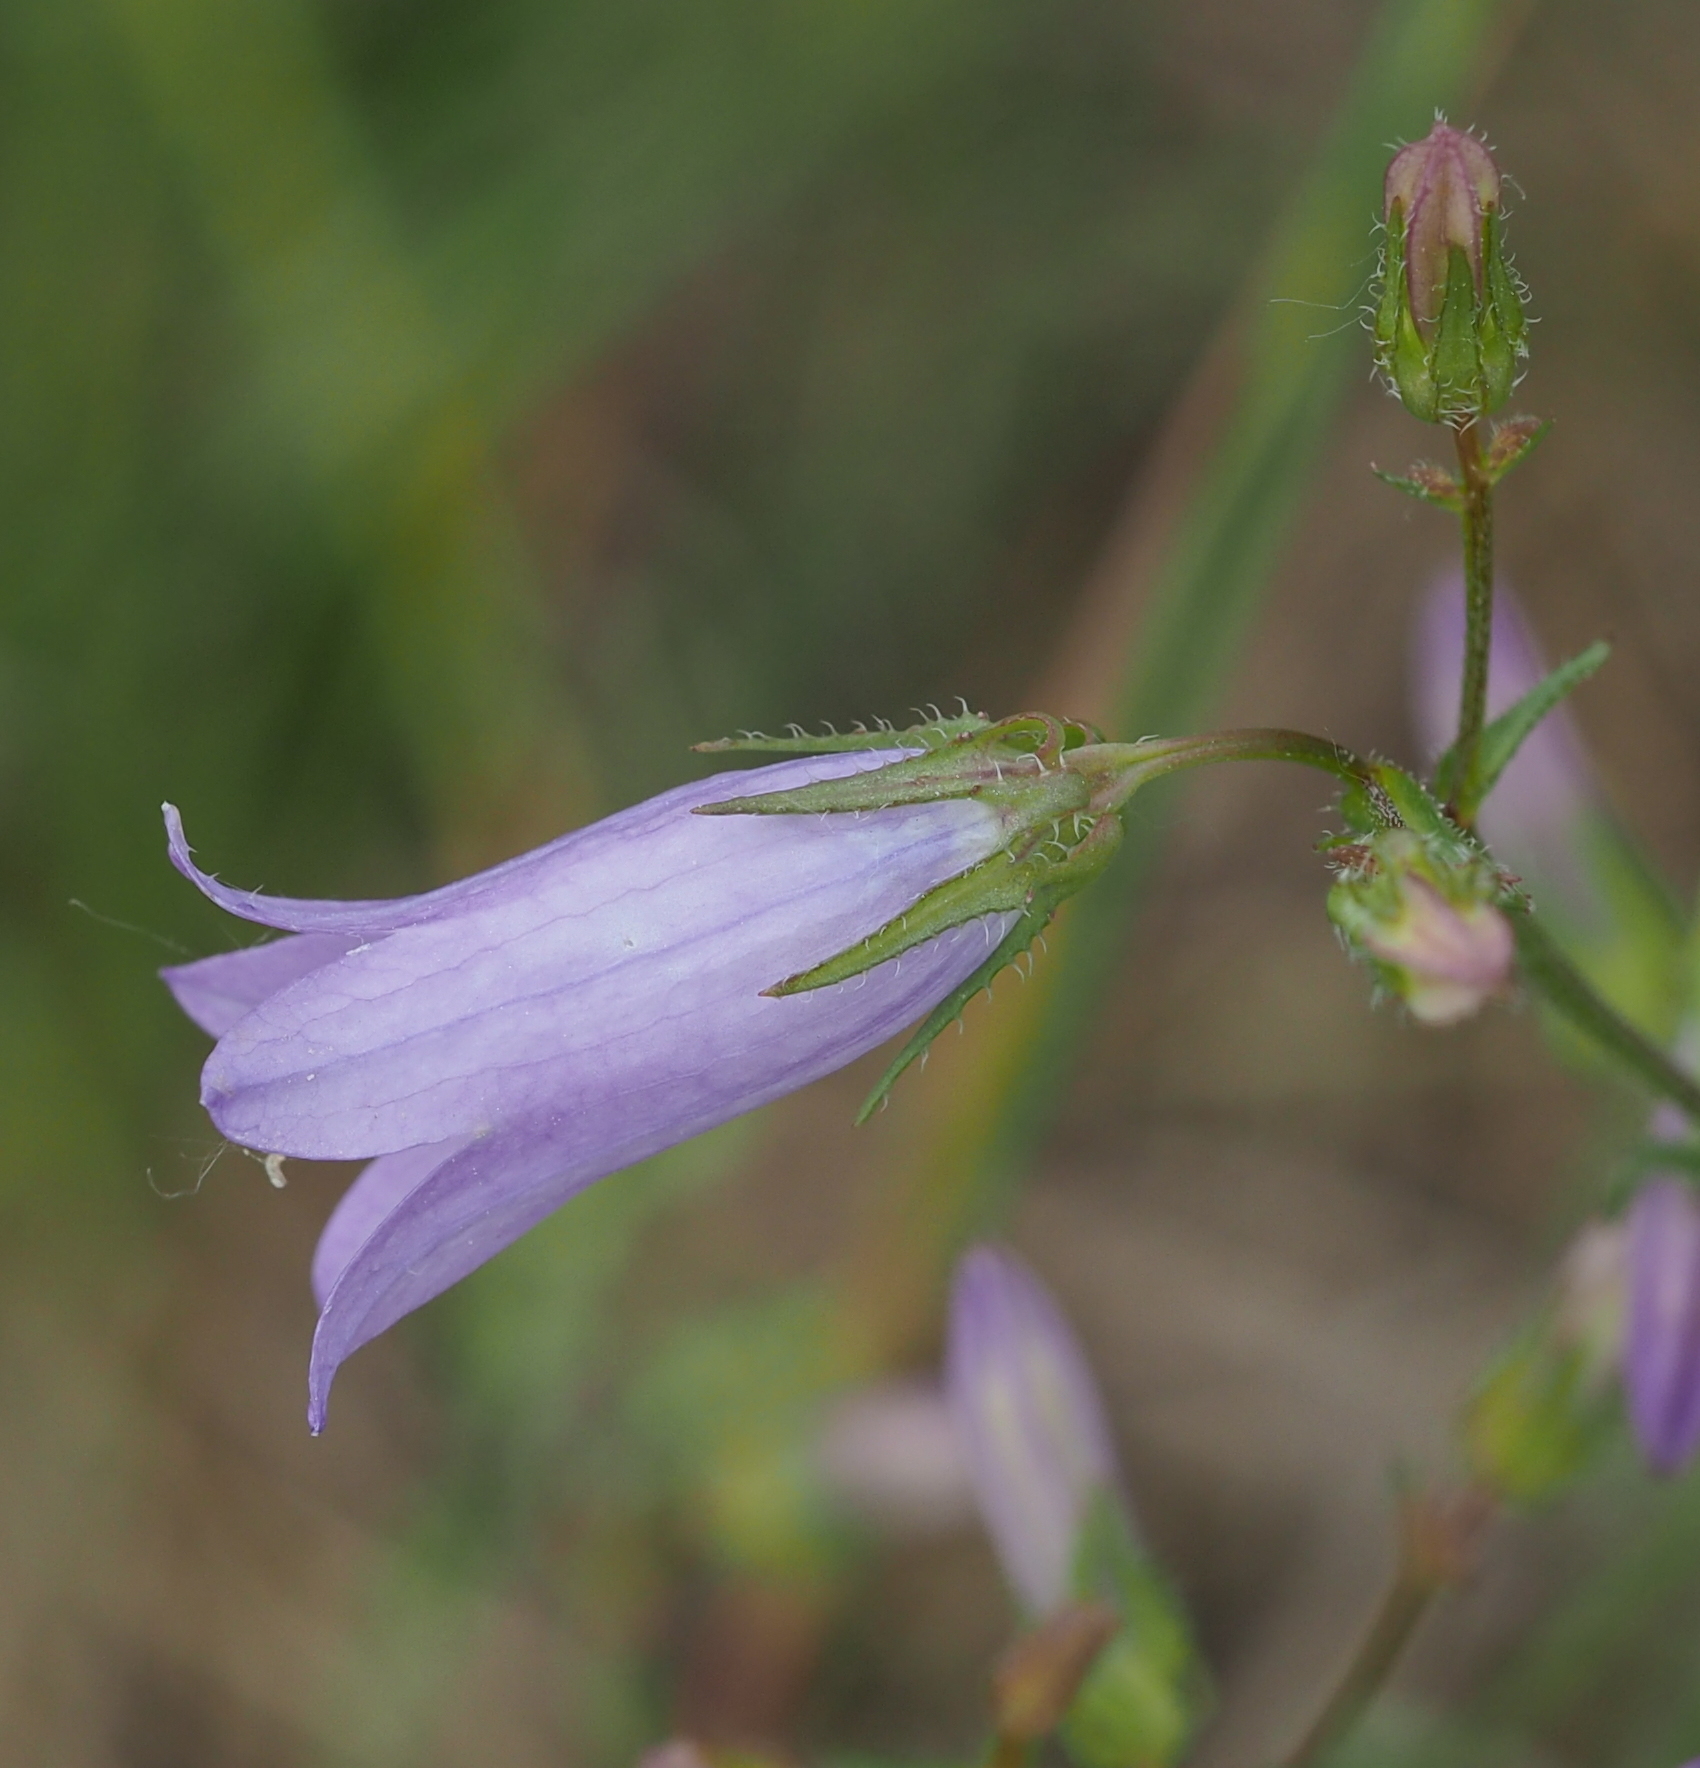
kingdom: Plantae
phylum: Tracheophyta
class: Magnoliopsida
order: Asterales
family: Campanulaceae
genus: Campanula
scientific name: Campanula sibirica
